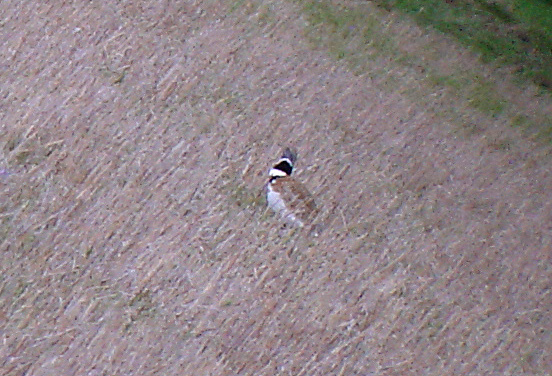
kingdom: Animalia
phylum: Chordata
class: Aves
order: Otidiformes
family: Otididae
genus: Tetrax
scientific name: Tetrax tetrax
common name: Little bustard
